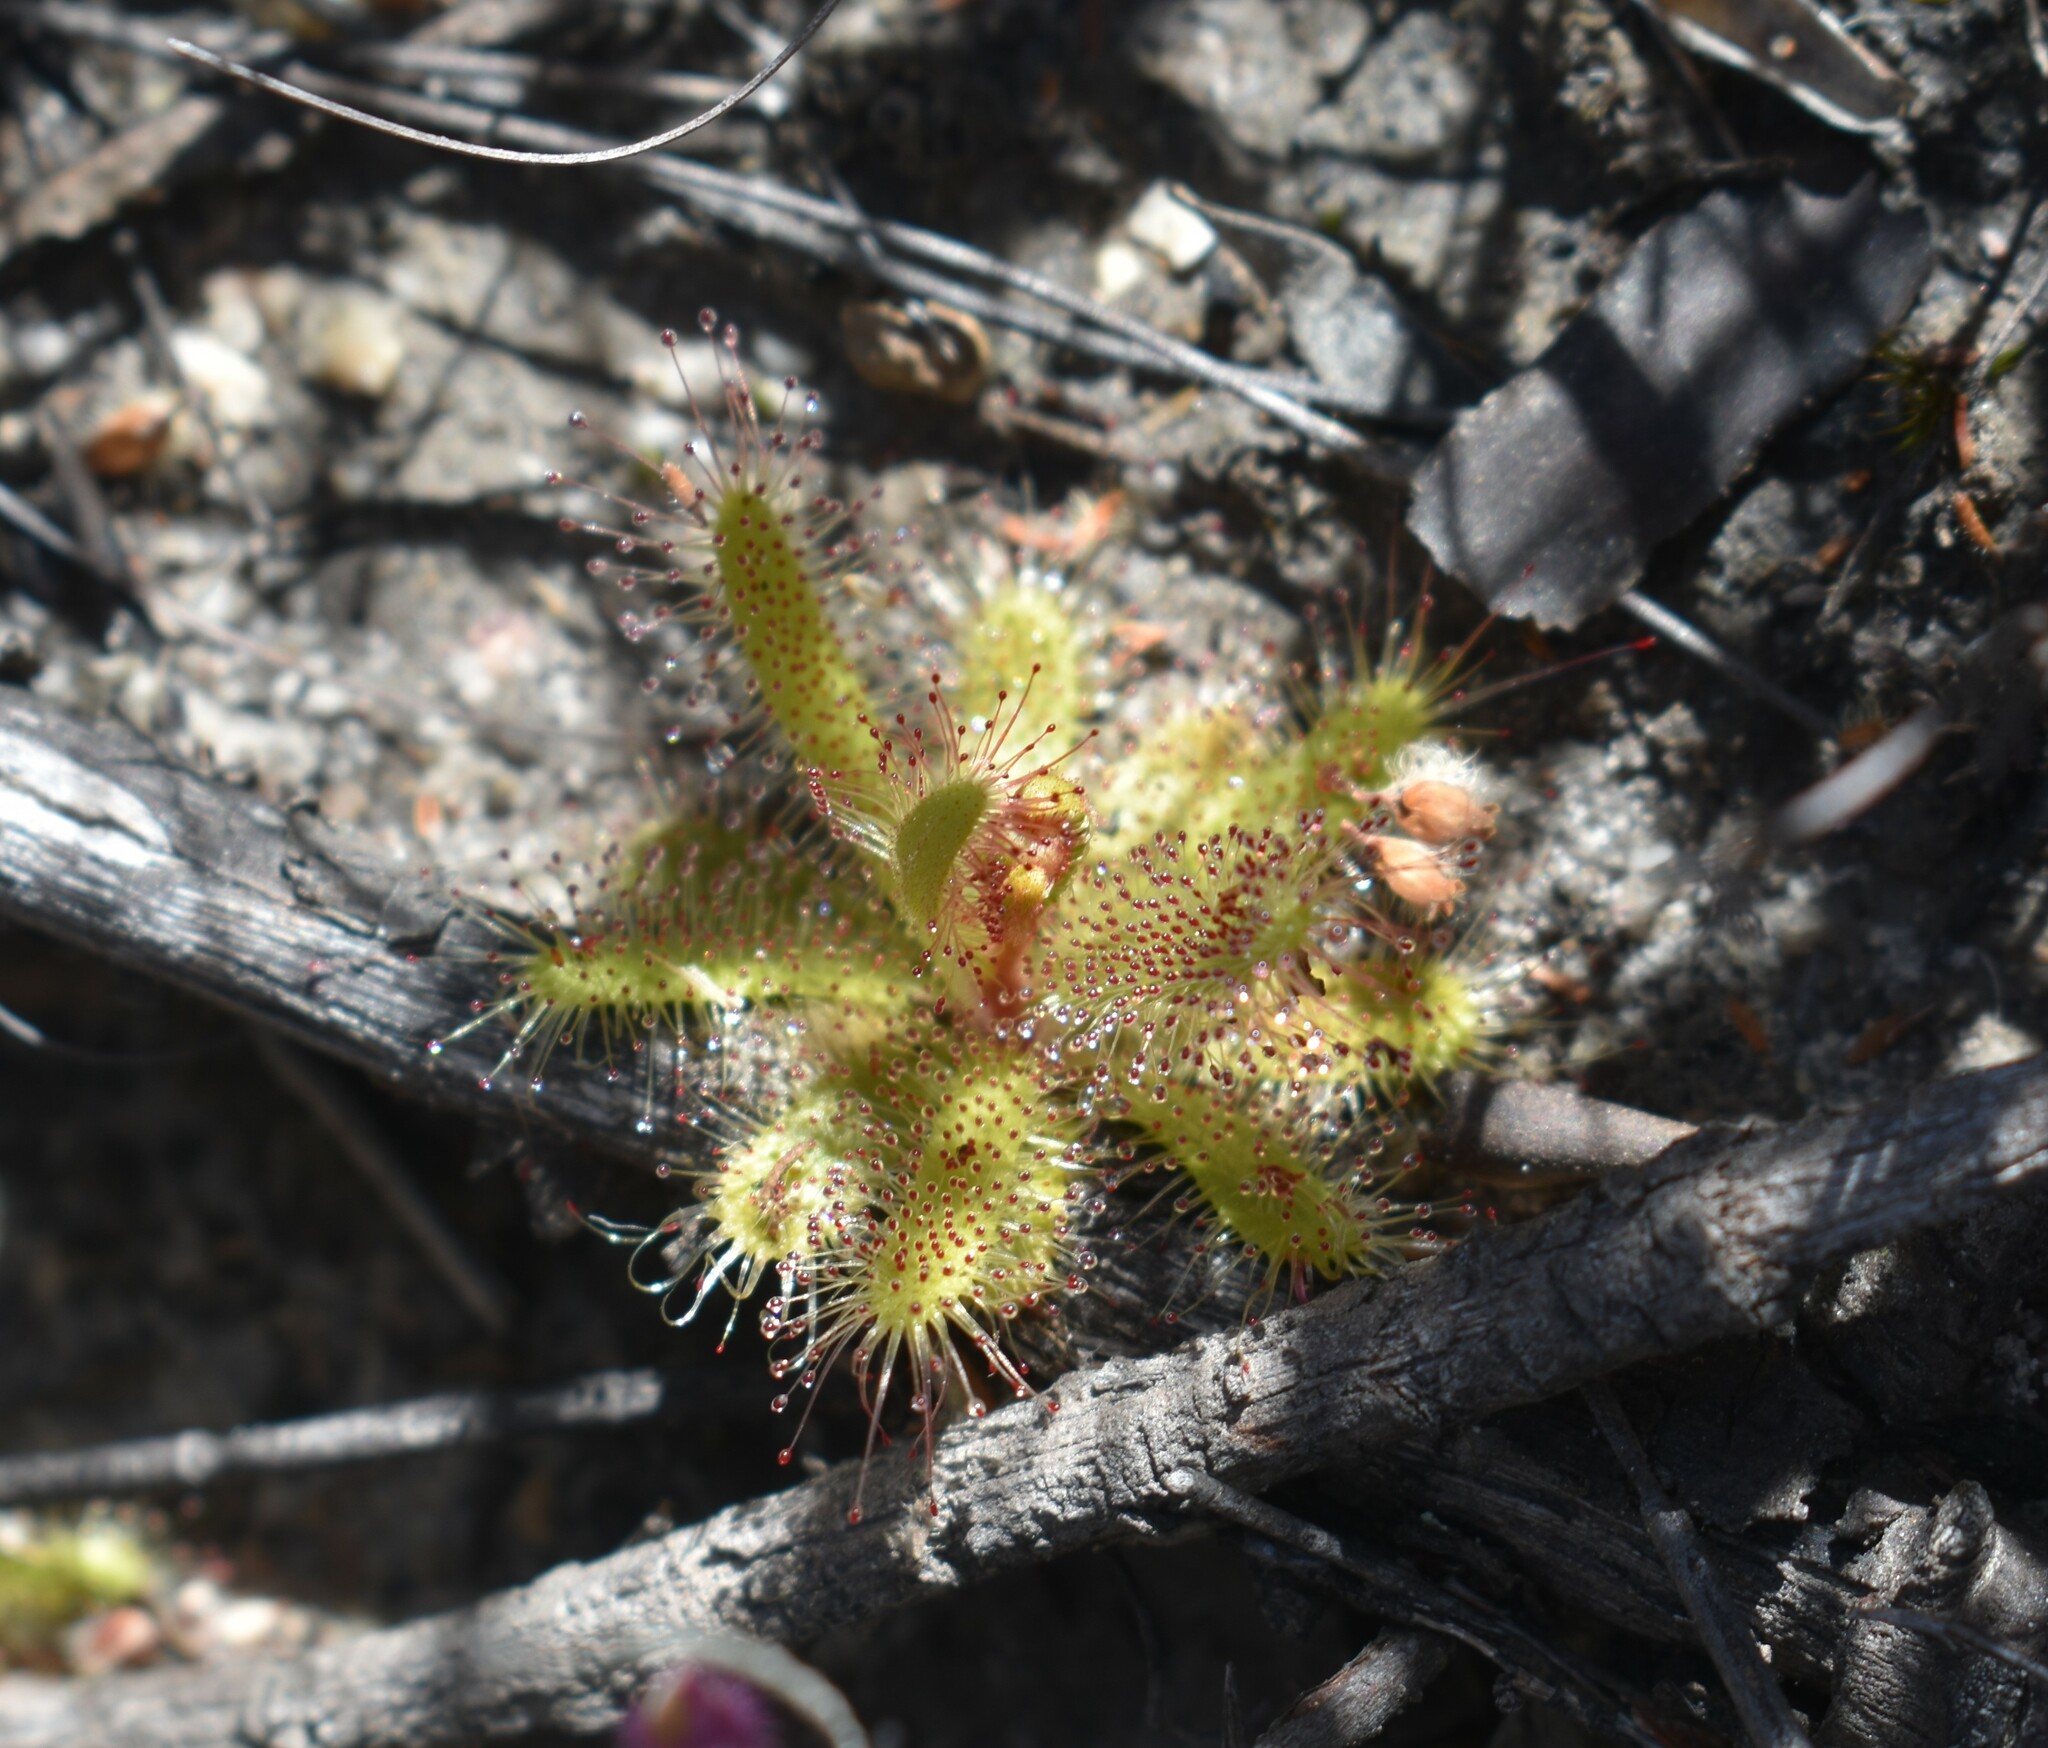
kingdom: Plantae
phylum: Tracheophyta
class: Magnoliopsida
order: Caryophyllales
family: Droseraceae
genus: Drosera
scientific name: Drosera cistiflora
